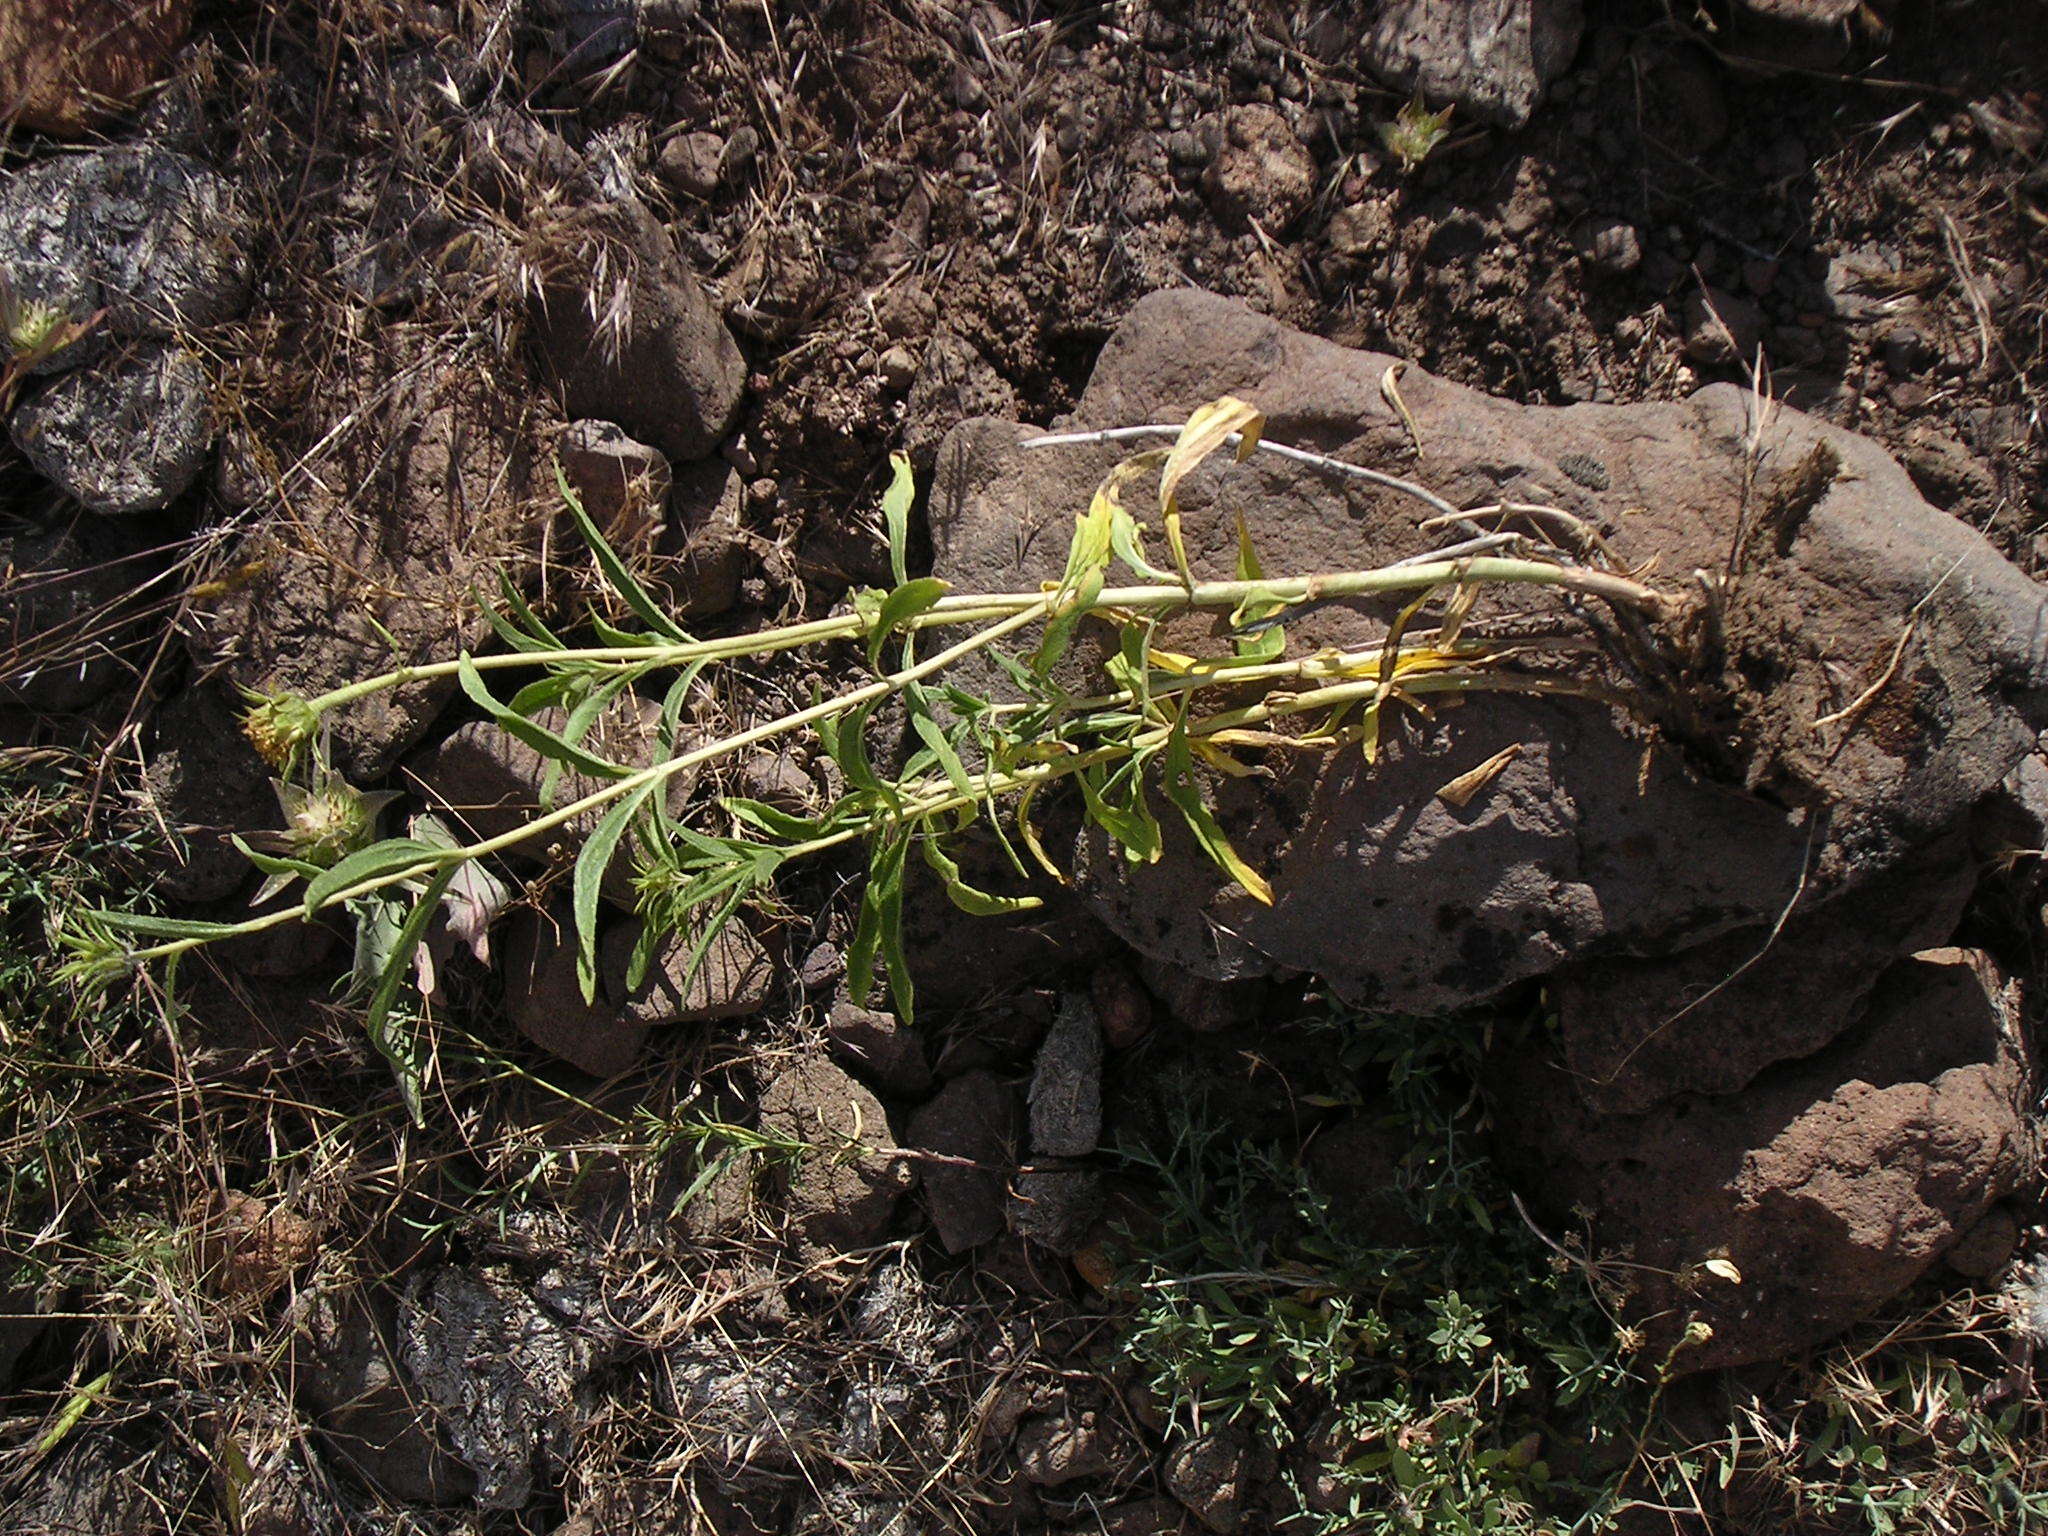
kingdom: Plantae
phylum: Tracheophyta
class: Magnoliopsida
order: Asterales
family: Asteraceae
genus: Helianthus
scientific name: Helianthus cusickii
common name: Cusick's sunflower
